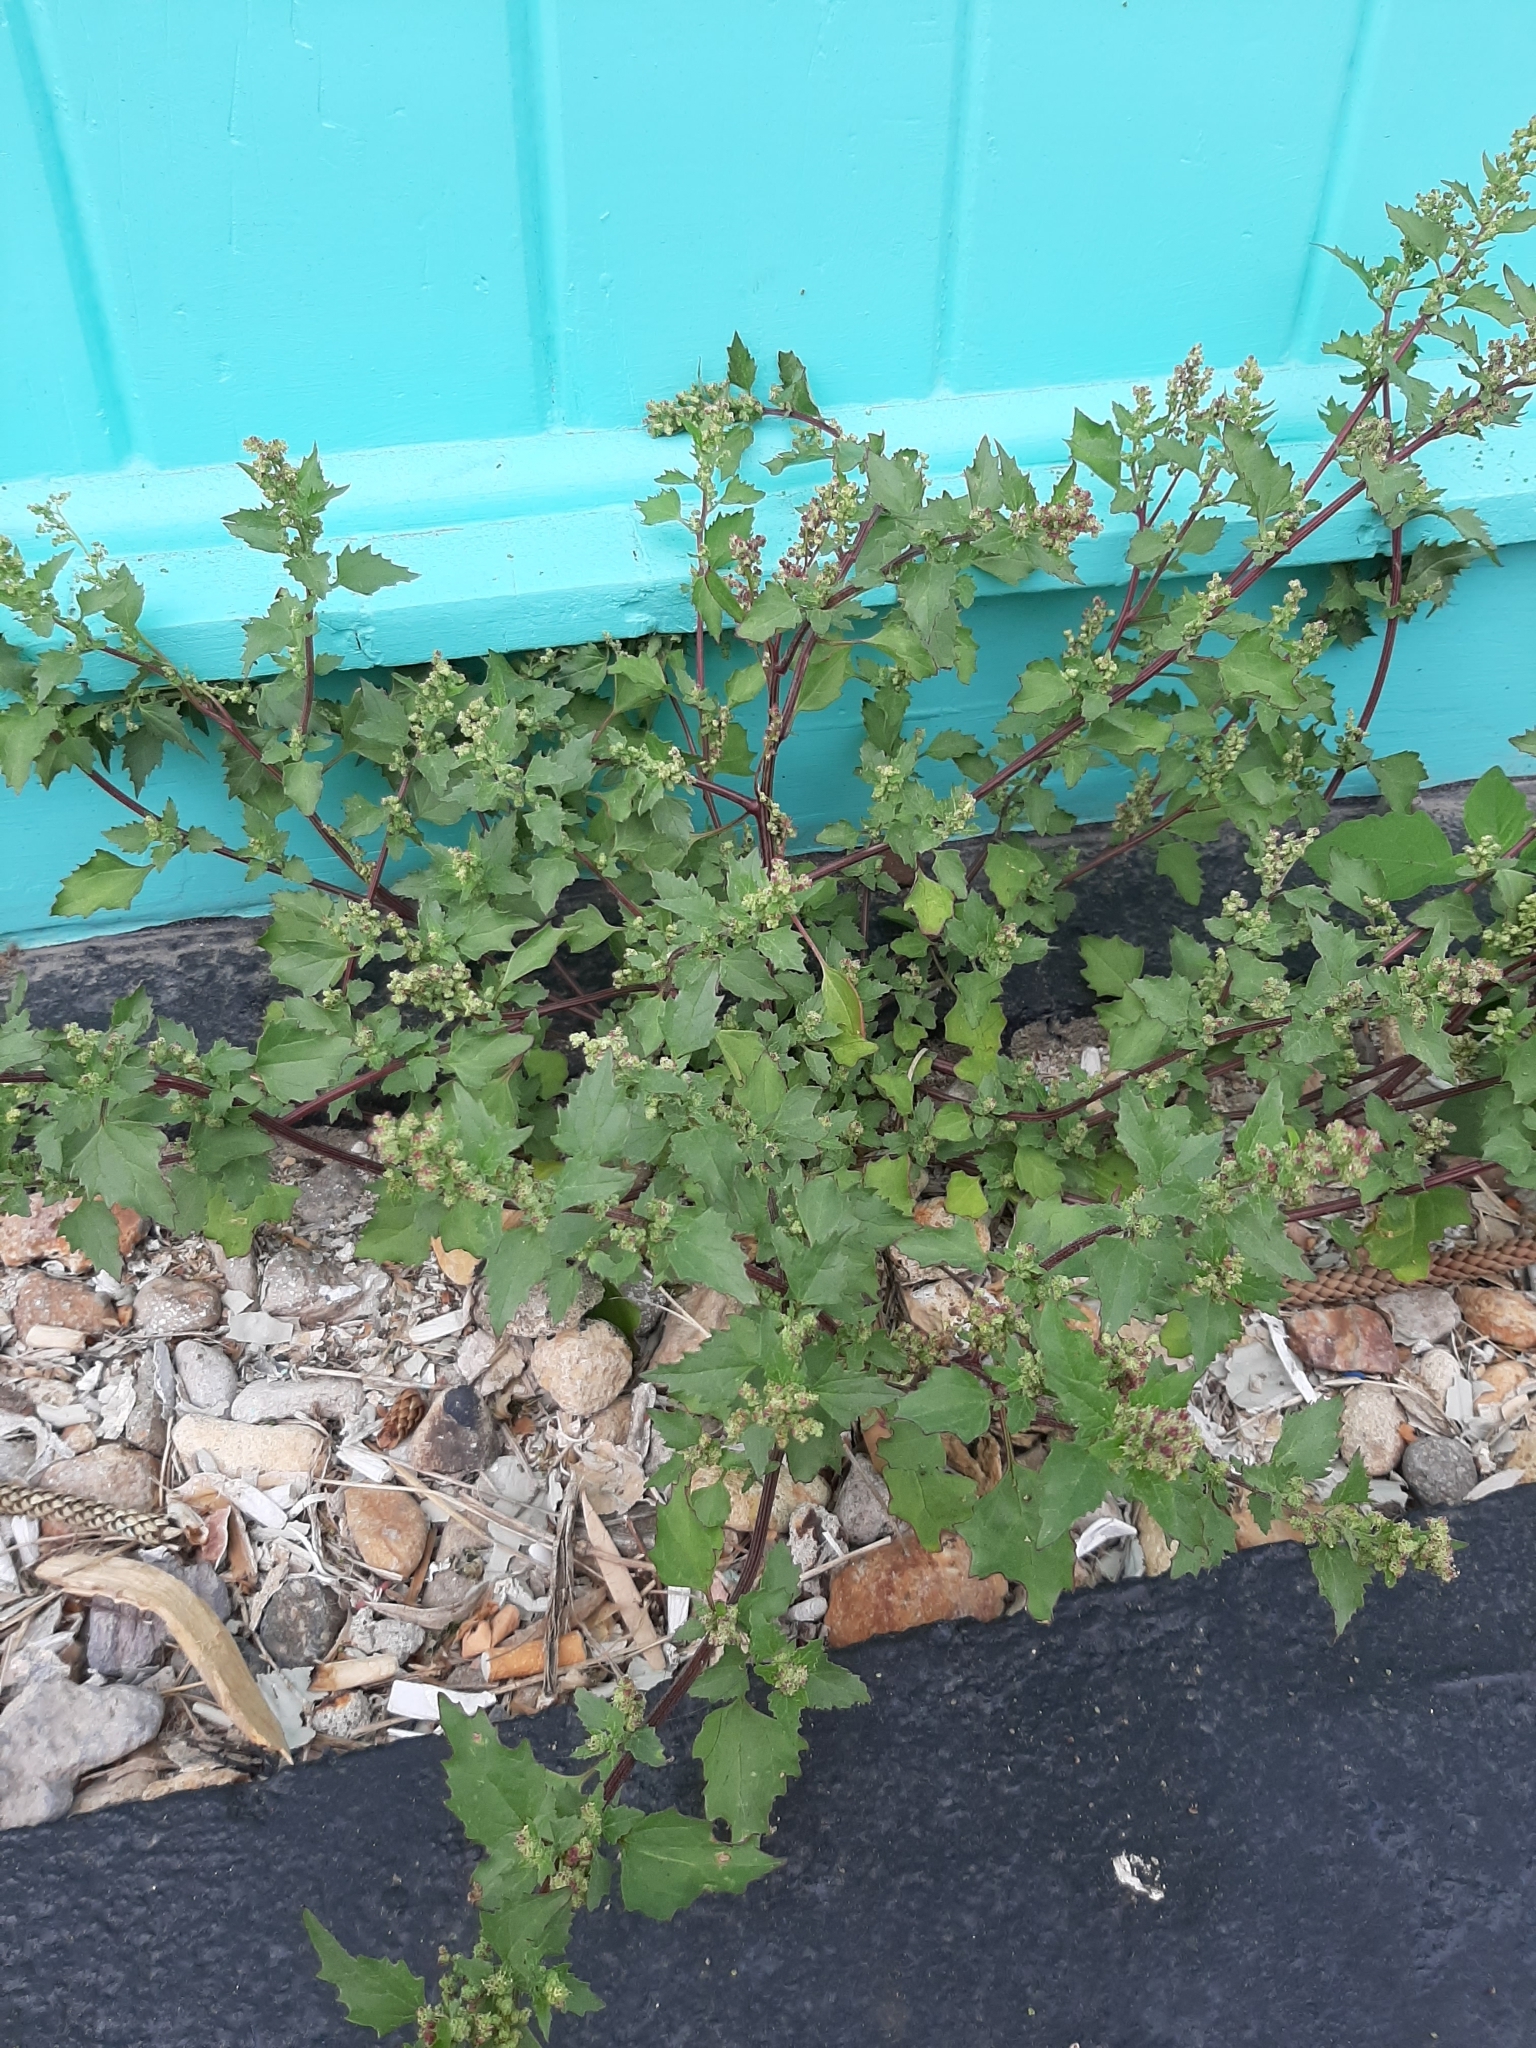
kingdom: Plantae
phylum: Tracheophyta
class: Magnoliopsida
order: Caryophyllales
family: Amaranthaceae
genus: Chenopodiastrum
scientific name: Chenopodiastrum murale
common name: Sowbane
